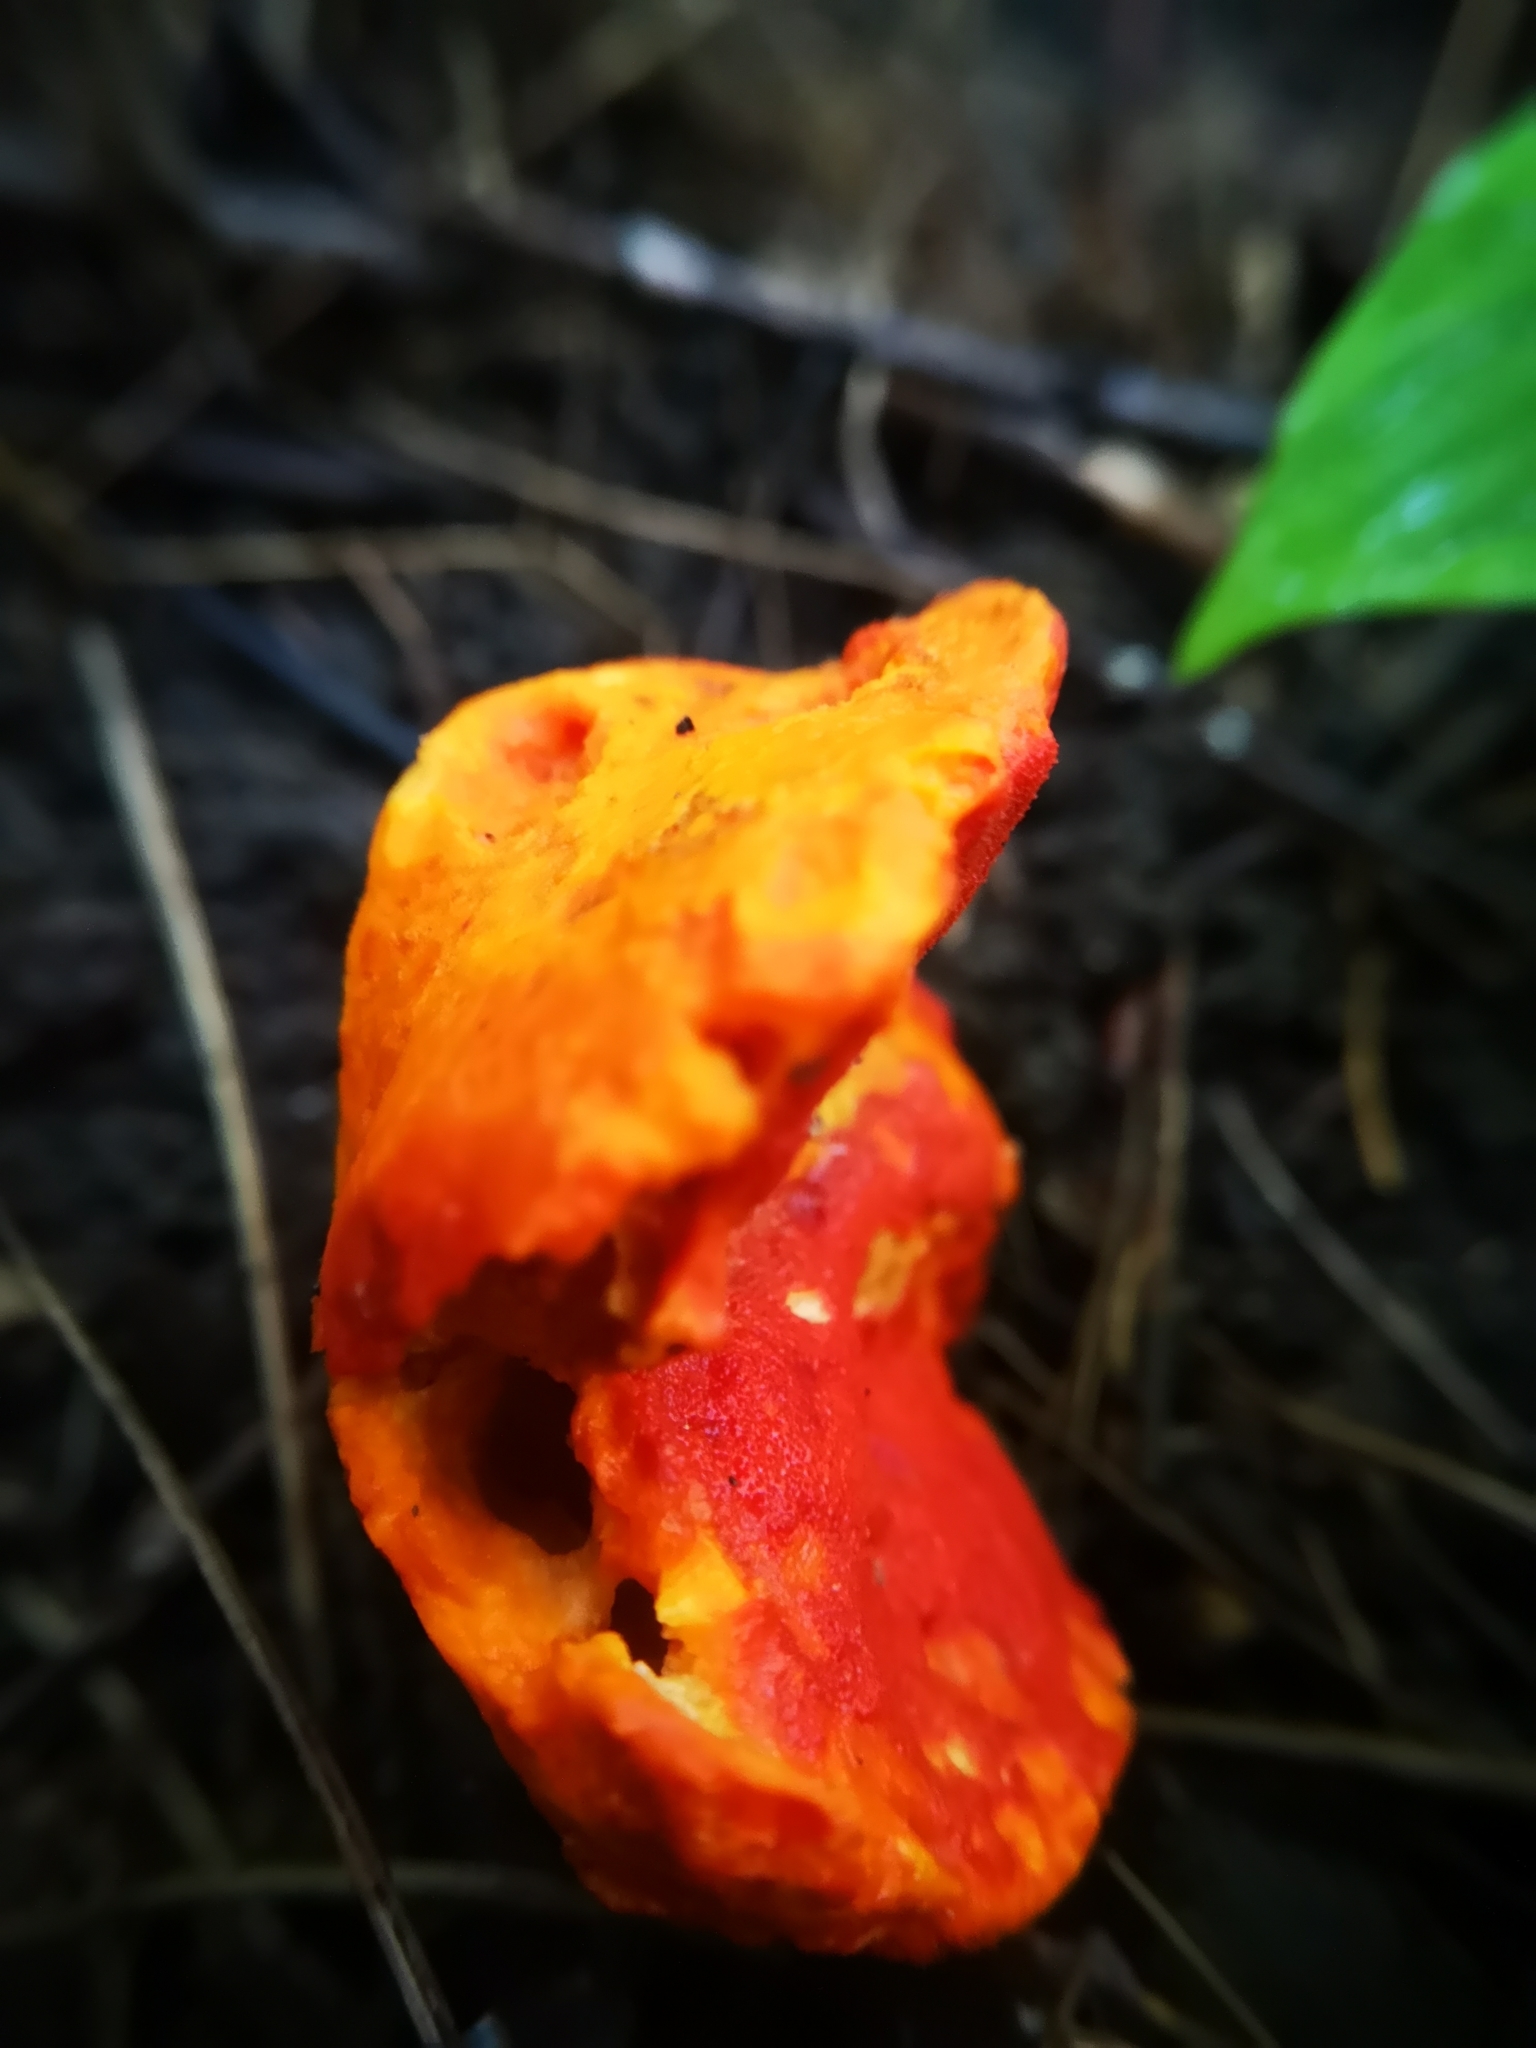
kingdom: Fungi
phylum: Ascomycota
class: Sordariomycetes
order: Hypocreales
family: Hypocreaceae
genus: Hypomyces
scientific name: Hypomyces lactifluorum
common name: Lobster mushroom
